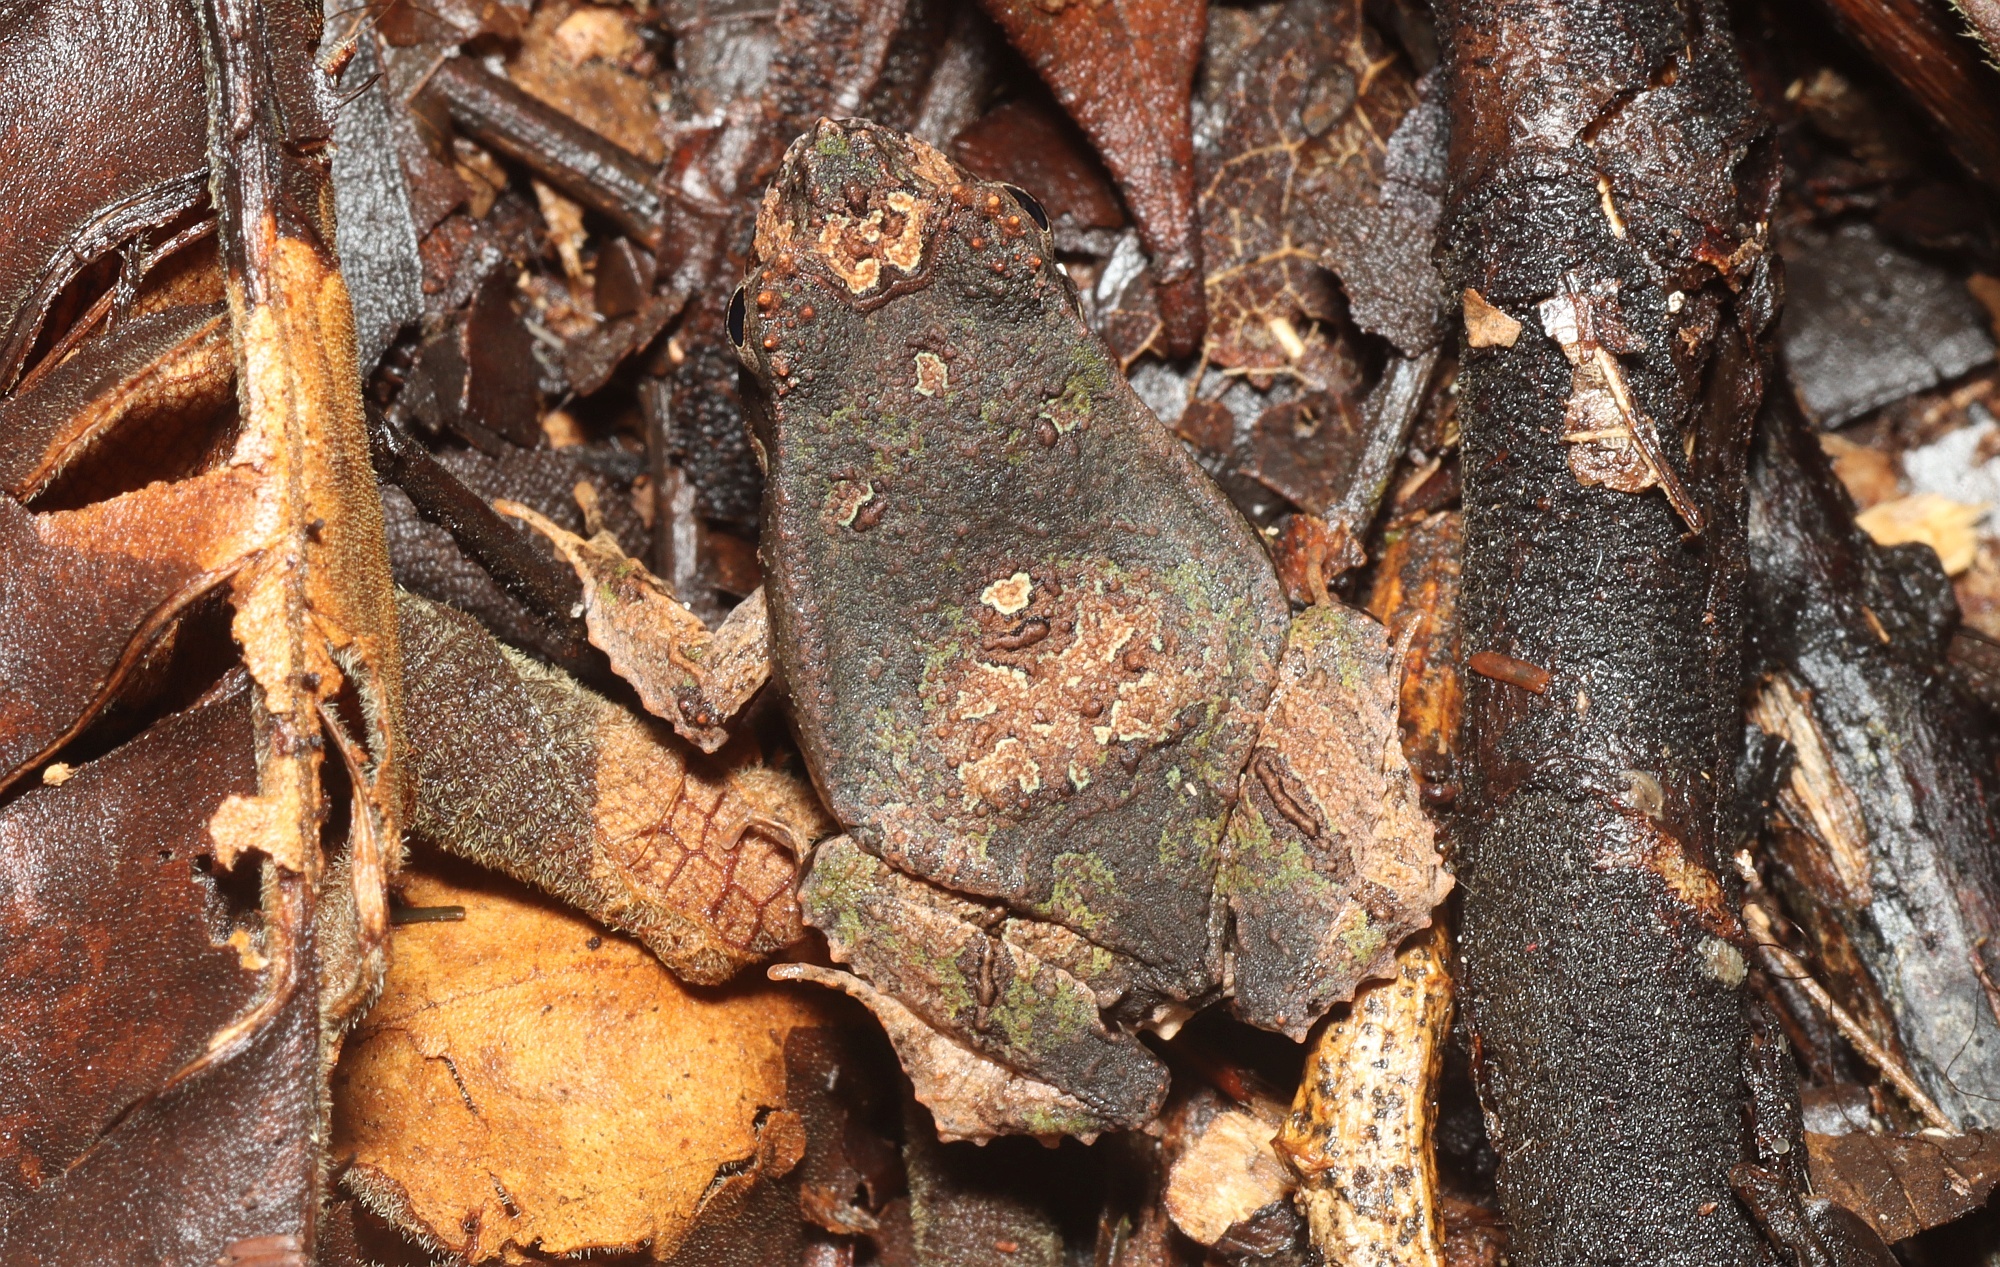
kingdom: Animalia
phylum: Chordata
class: Amphibia
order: Anura
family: Leptodactylidae
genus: Edalorhina
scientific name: Edalorhina perezi
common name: Perez’s snouted frog
